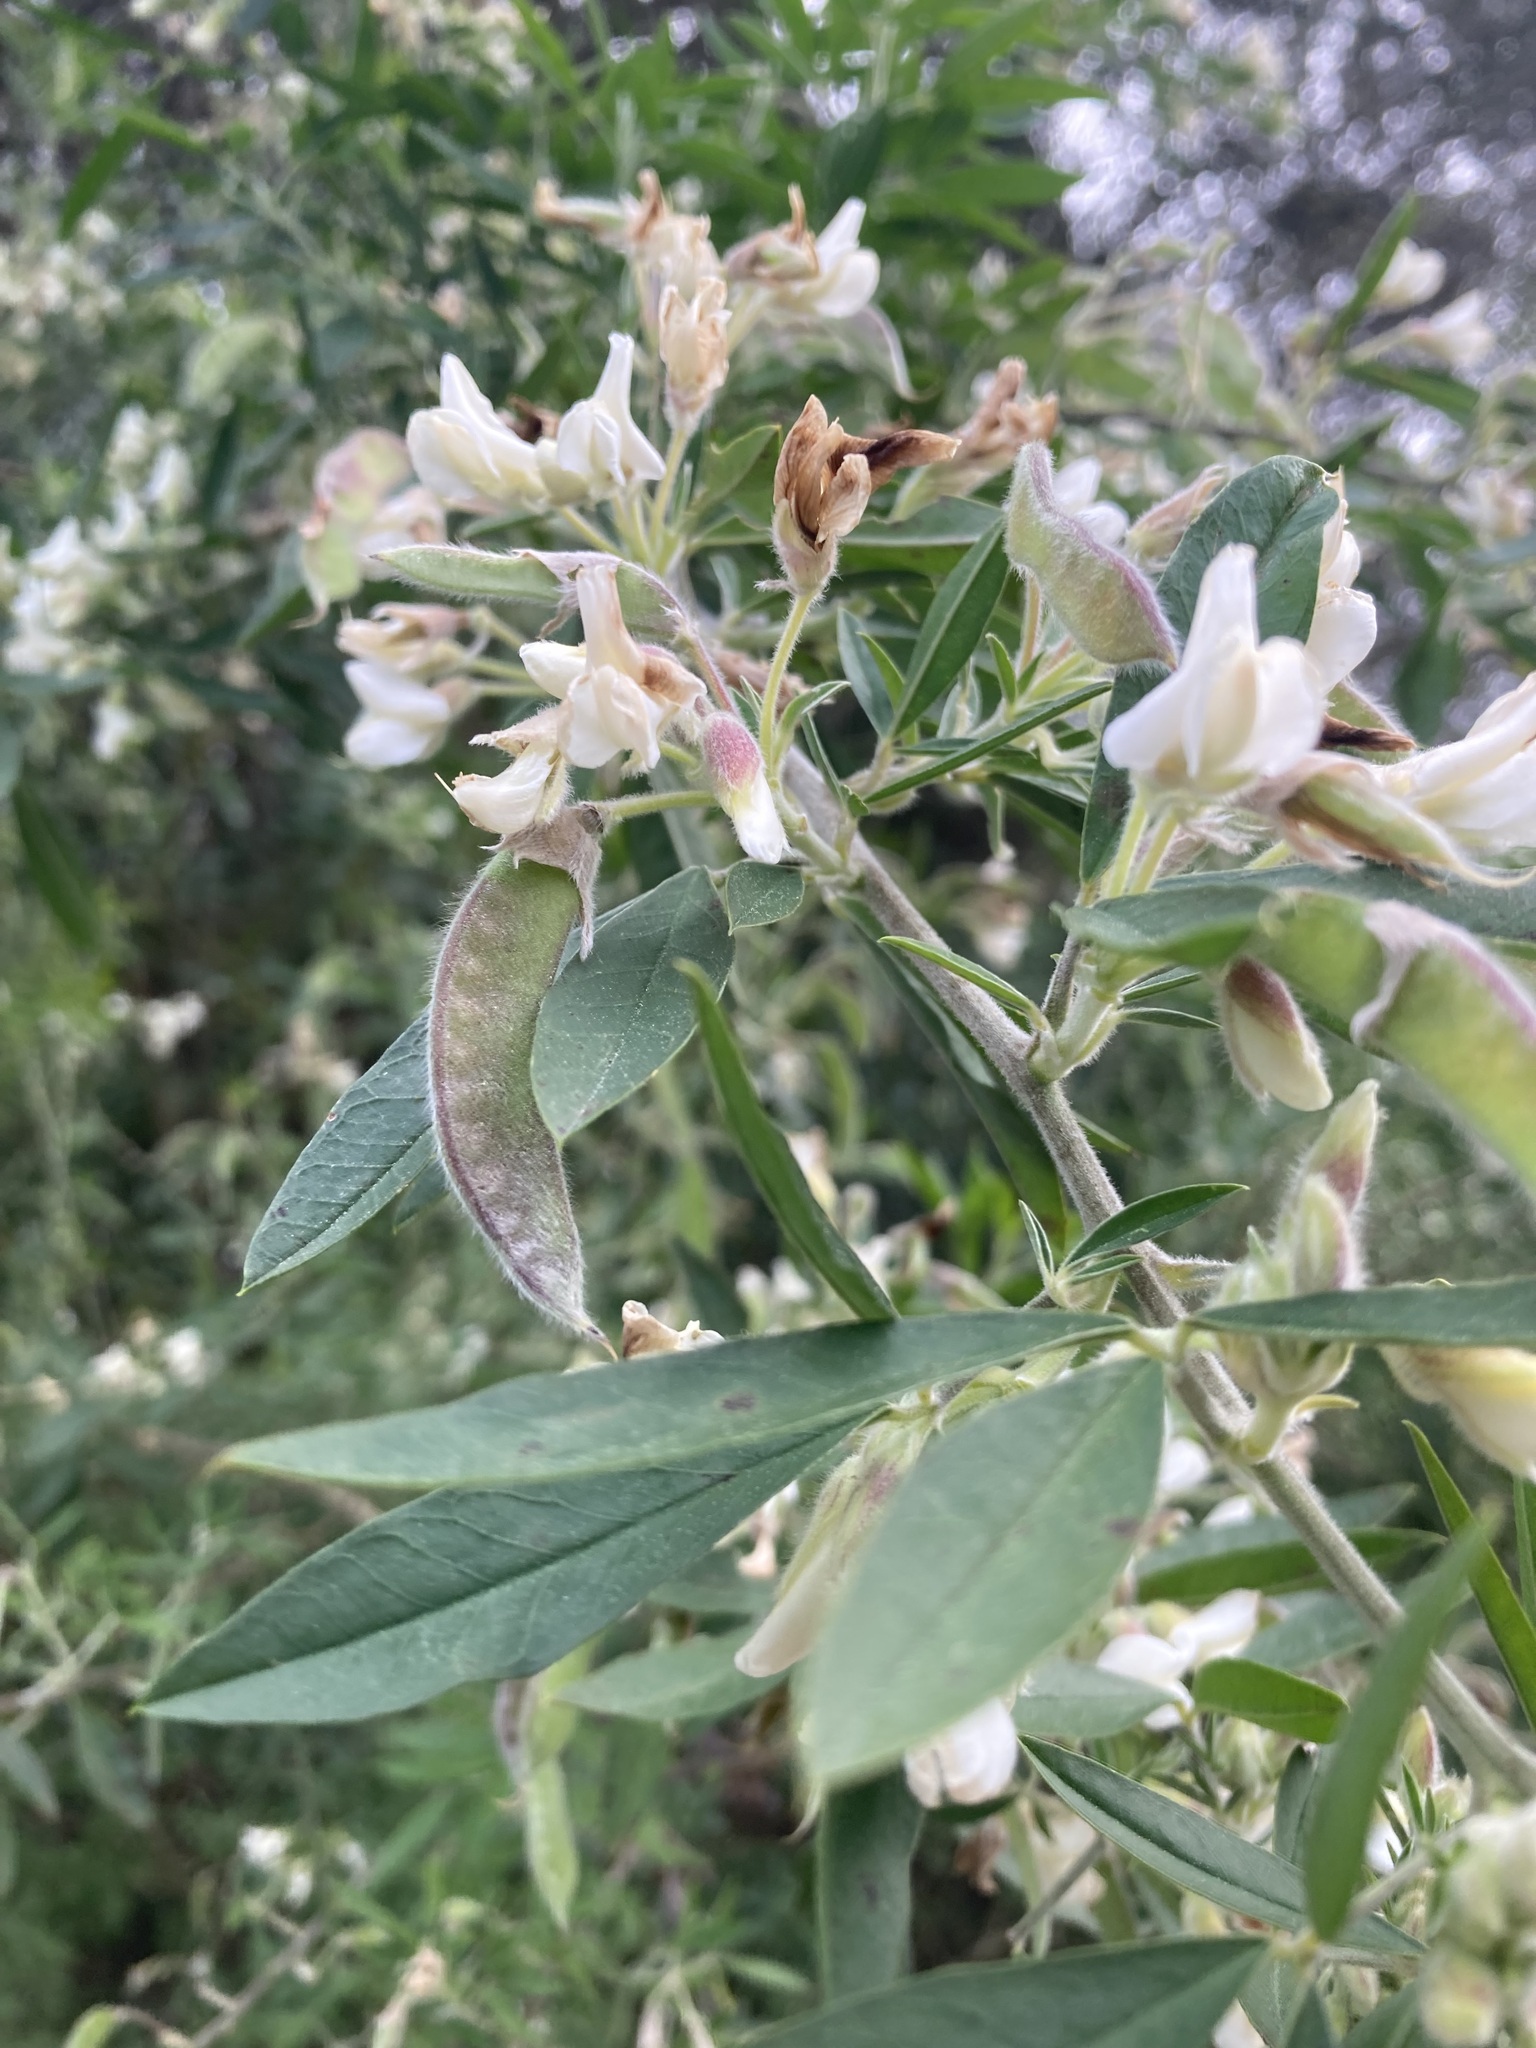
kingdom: Plantae
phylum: Tracheophyta
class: Magnoliopsida
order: Fabales
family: Fabaceae
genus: Chamaecytisus
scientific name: Chamaecytisus prolifer
